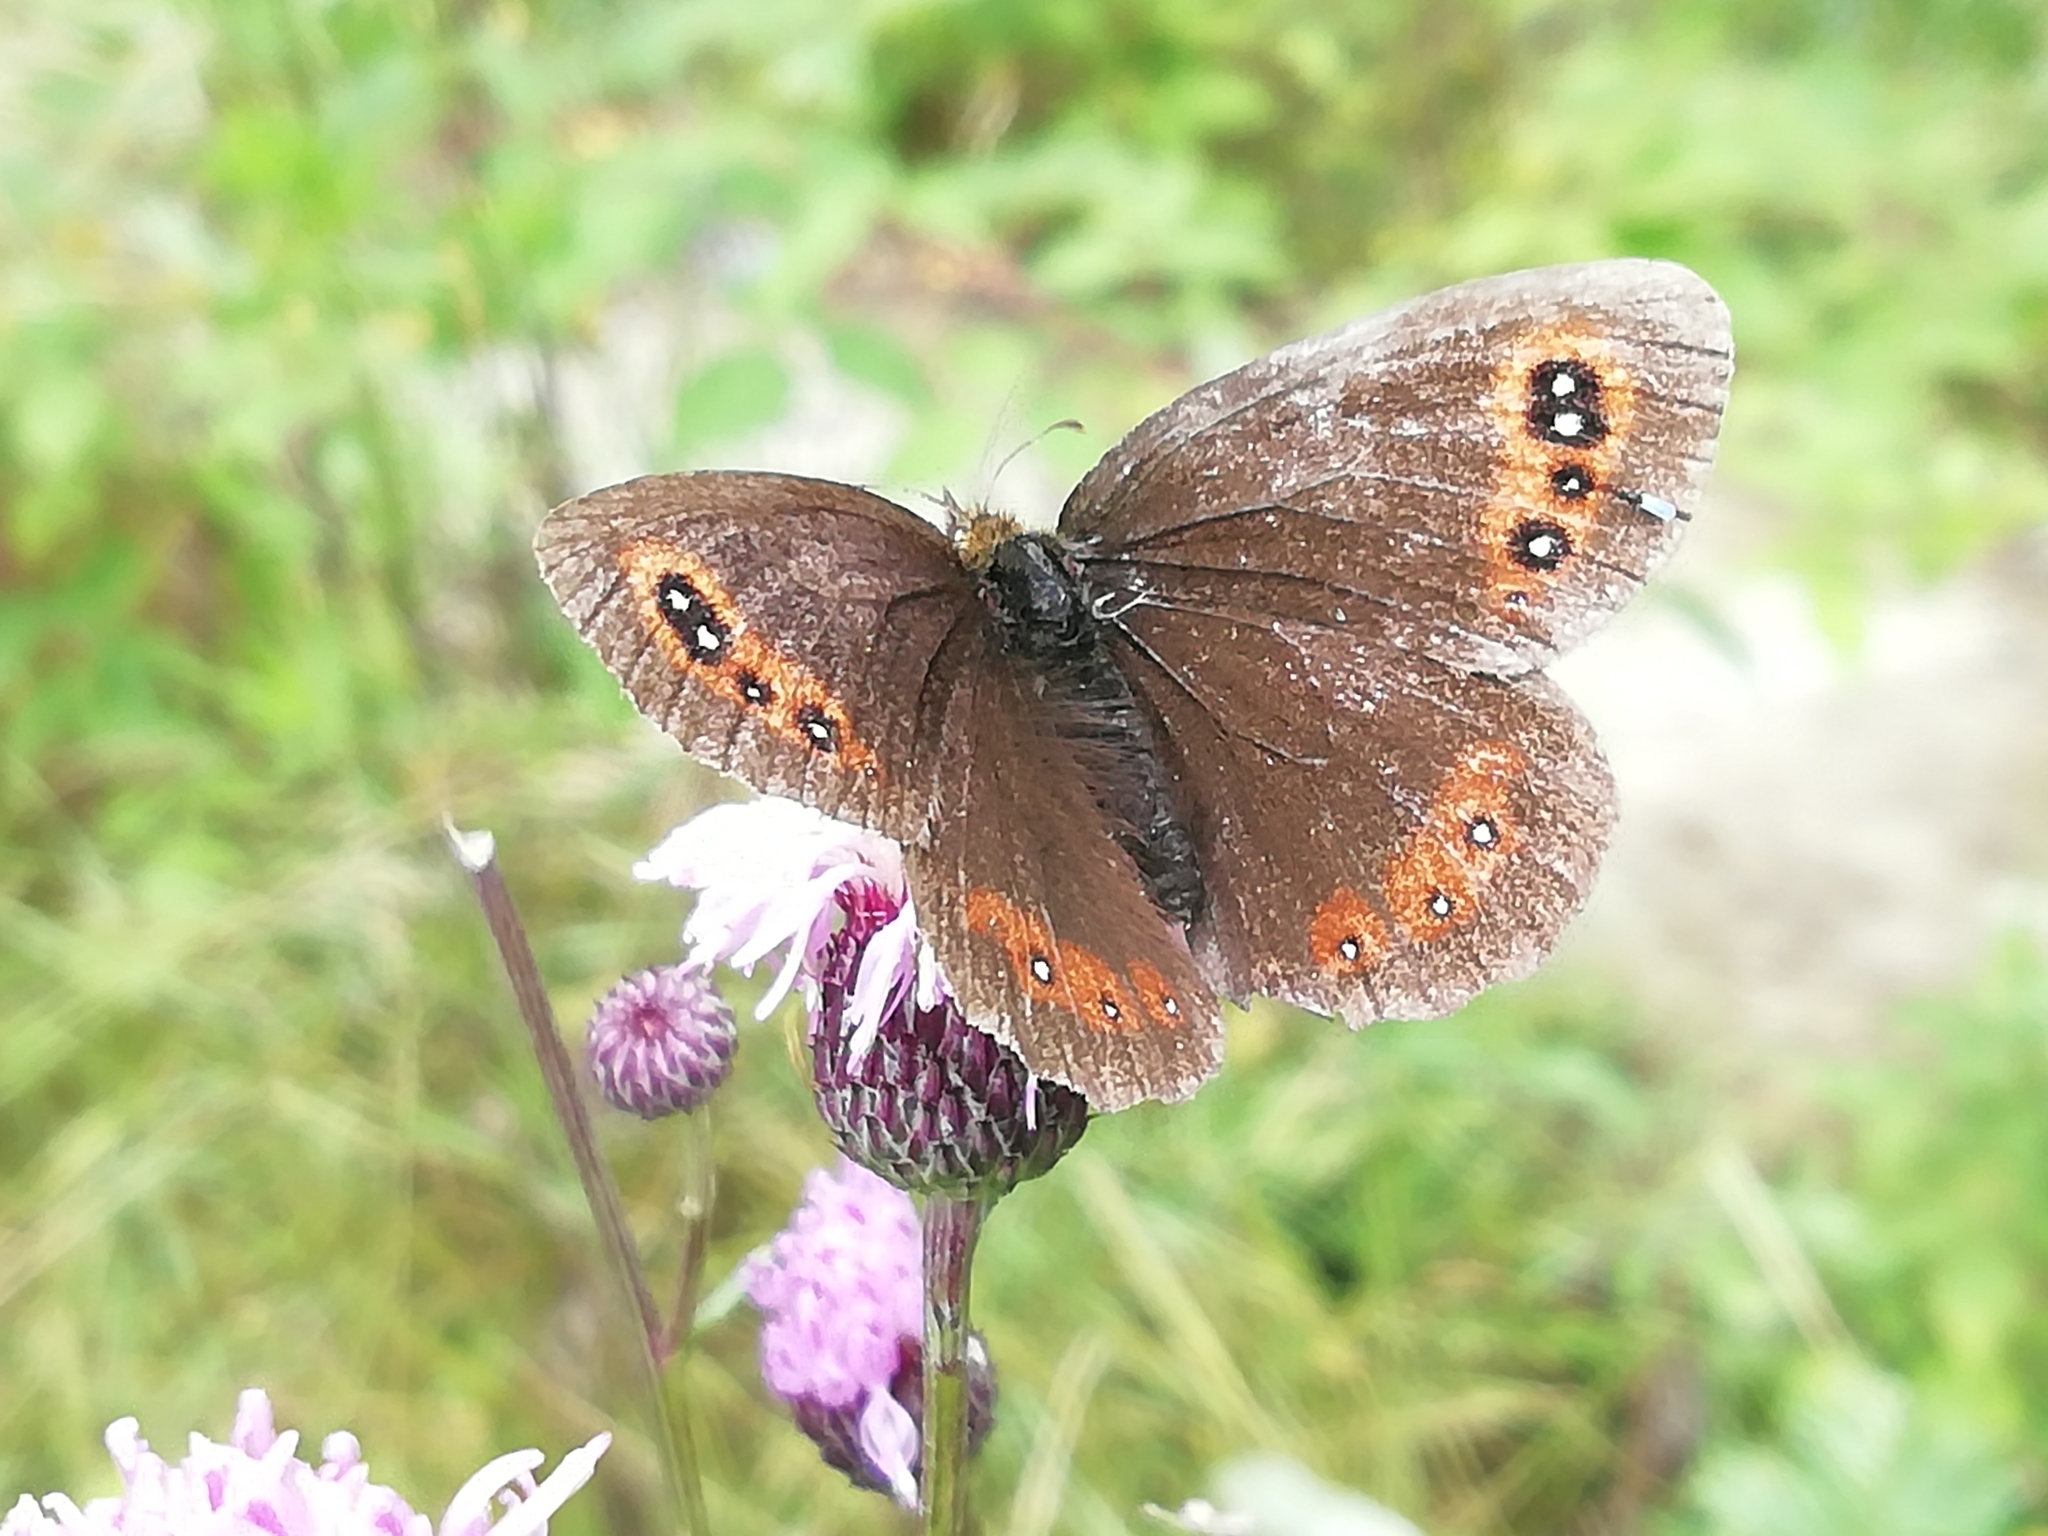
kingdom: Animalia
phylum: Arthropoda
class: Insecta
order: Lepidoptera
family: Nymphalidae
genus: Erebia
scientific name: Erebia aethiops
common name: Scotch argus
